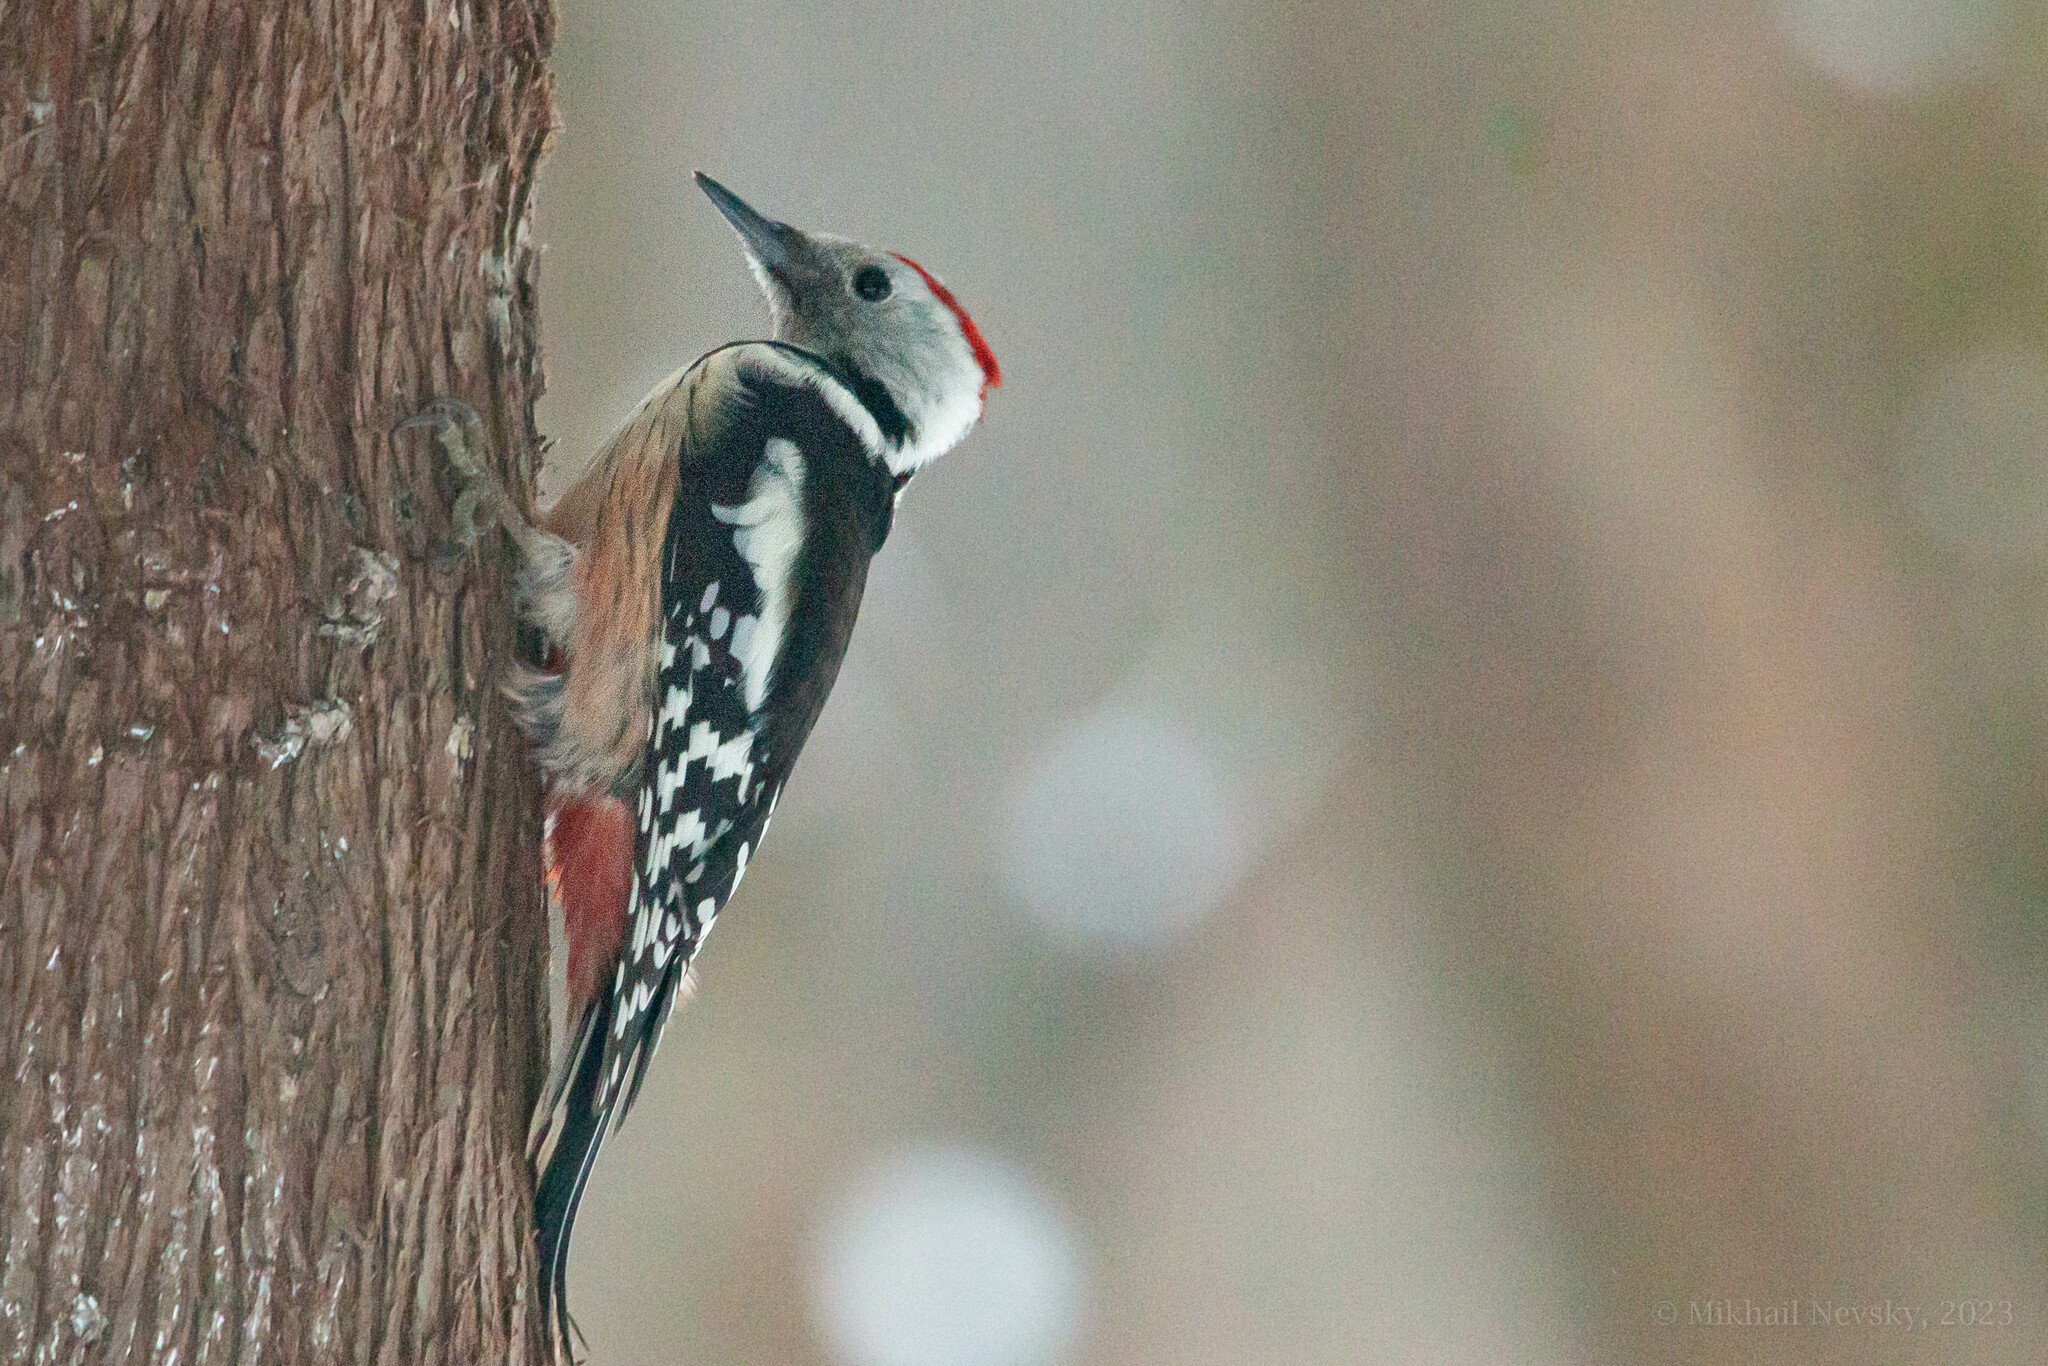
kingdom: Animalia
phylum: Chordata
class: Aves
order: Piciformes
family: Picidae
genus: Dendrocoptes
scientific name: Dendrocoptes medius
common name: Middle spotted woodpecker
